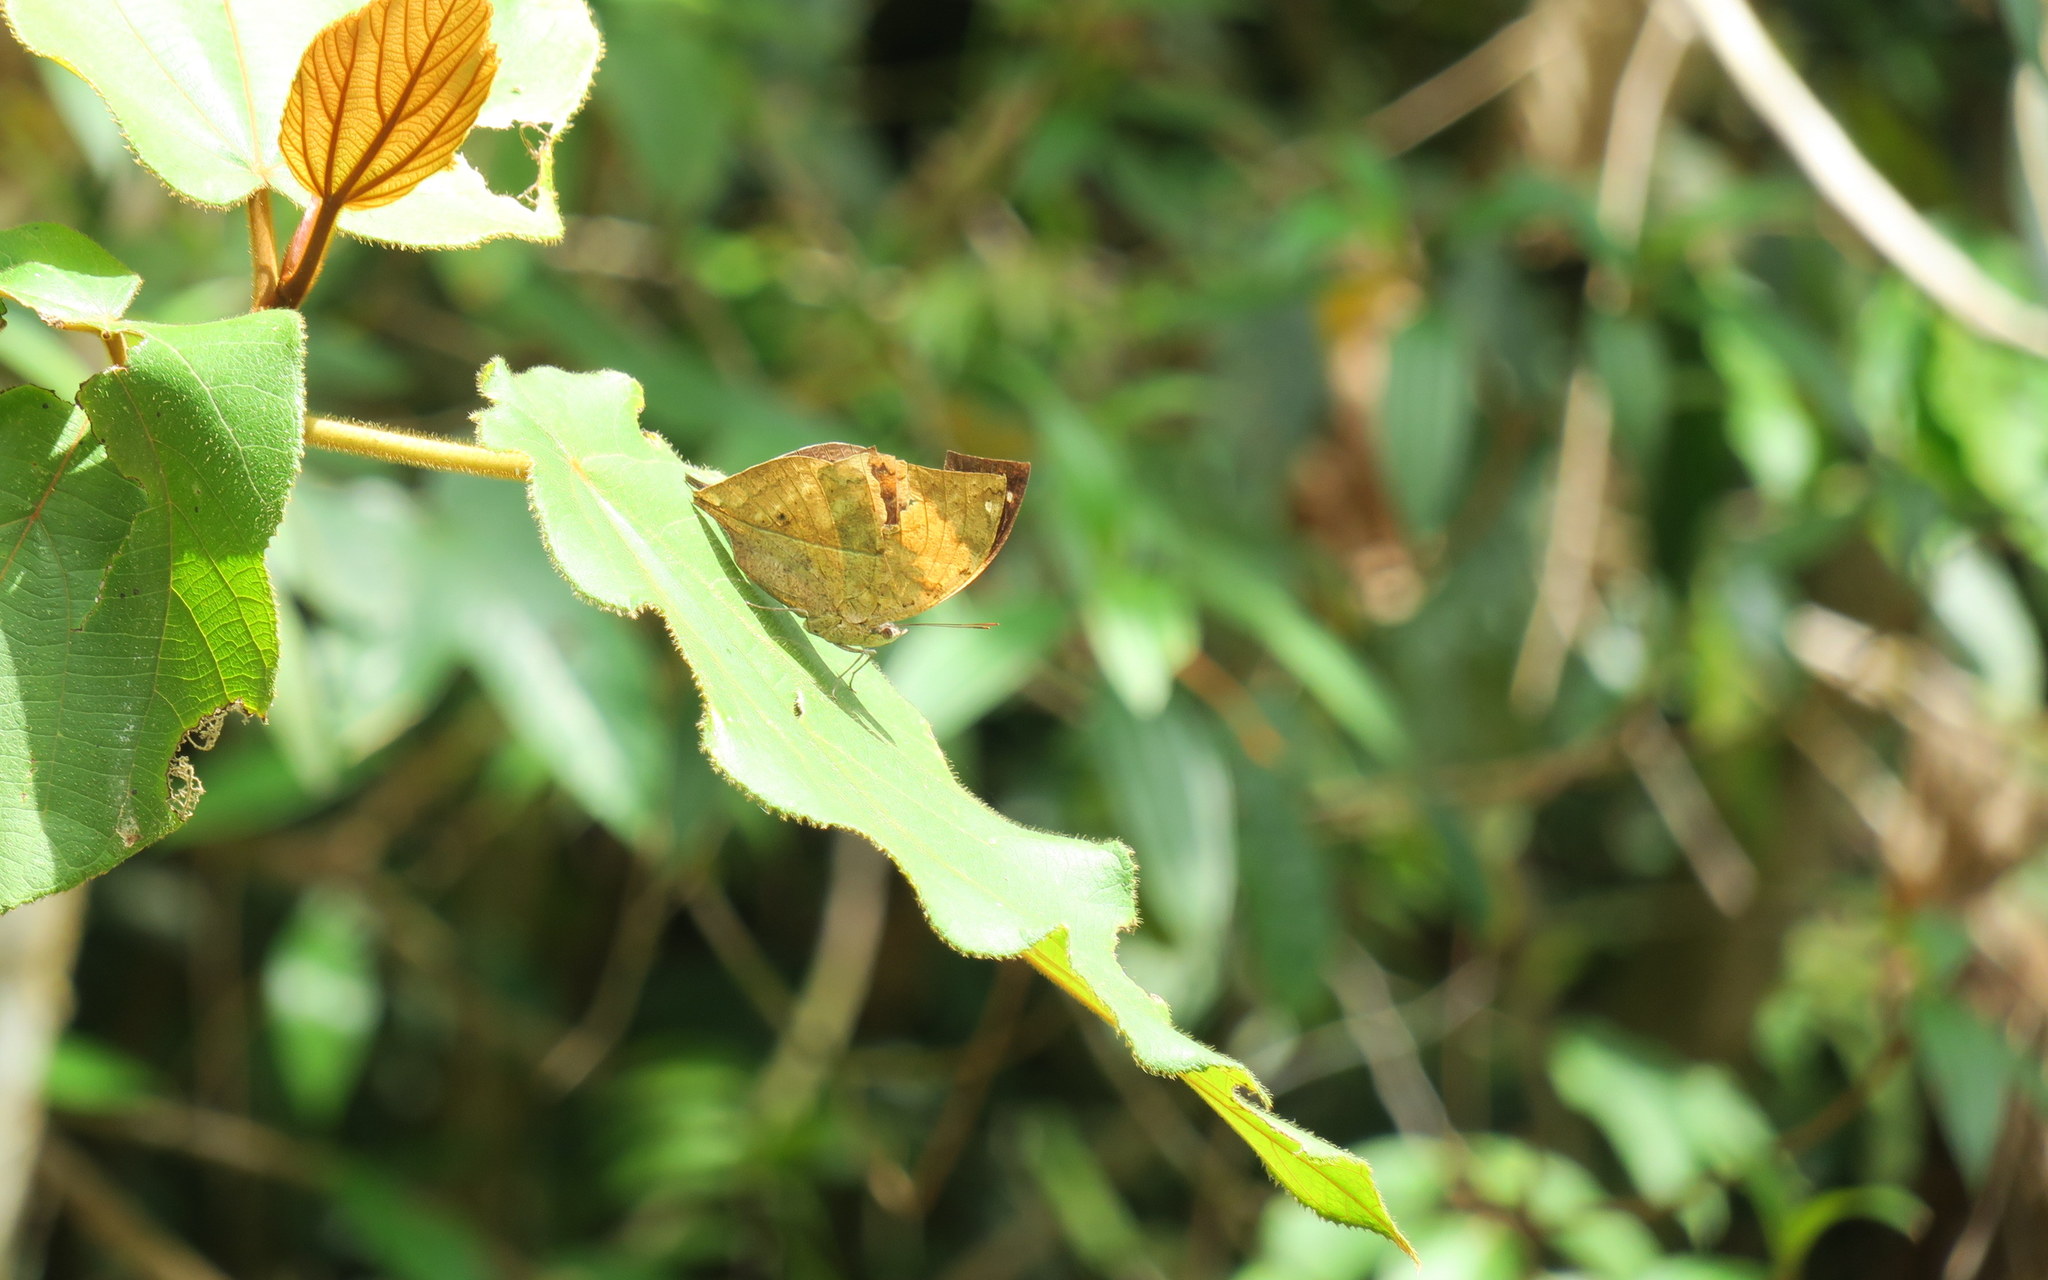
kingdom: Animalia
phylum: Arthropoda
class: Insecta
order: Lepidoptera
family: Nymphalidae
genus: Kallima
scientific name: Kallima inachus
